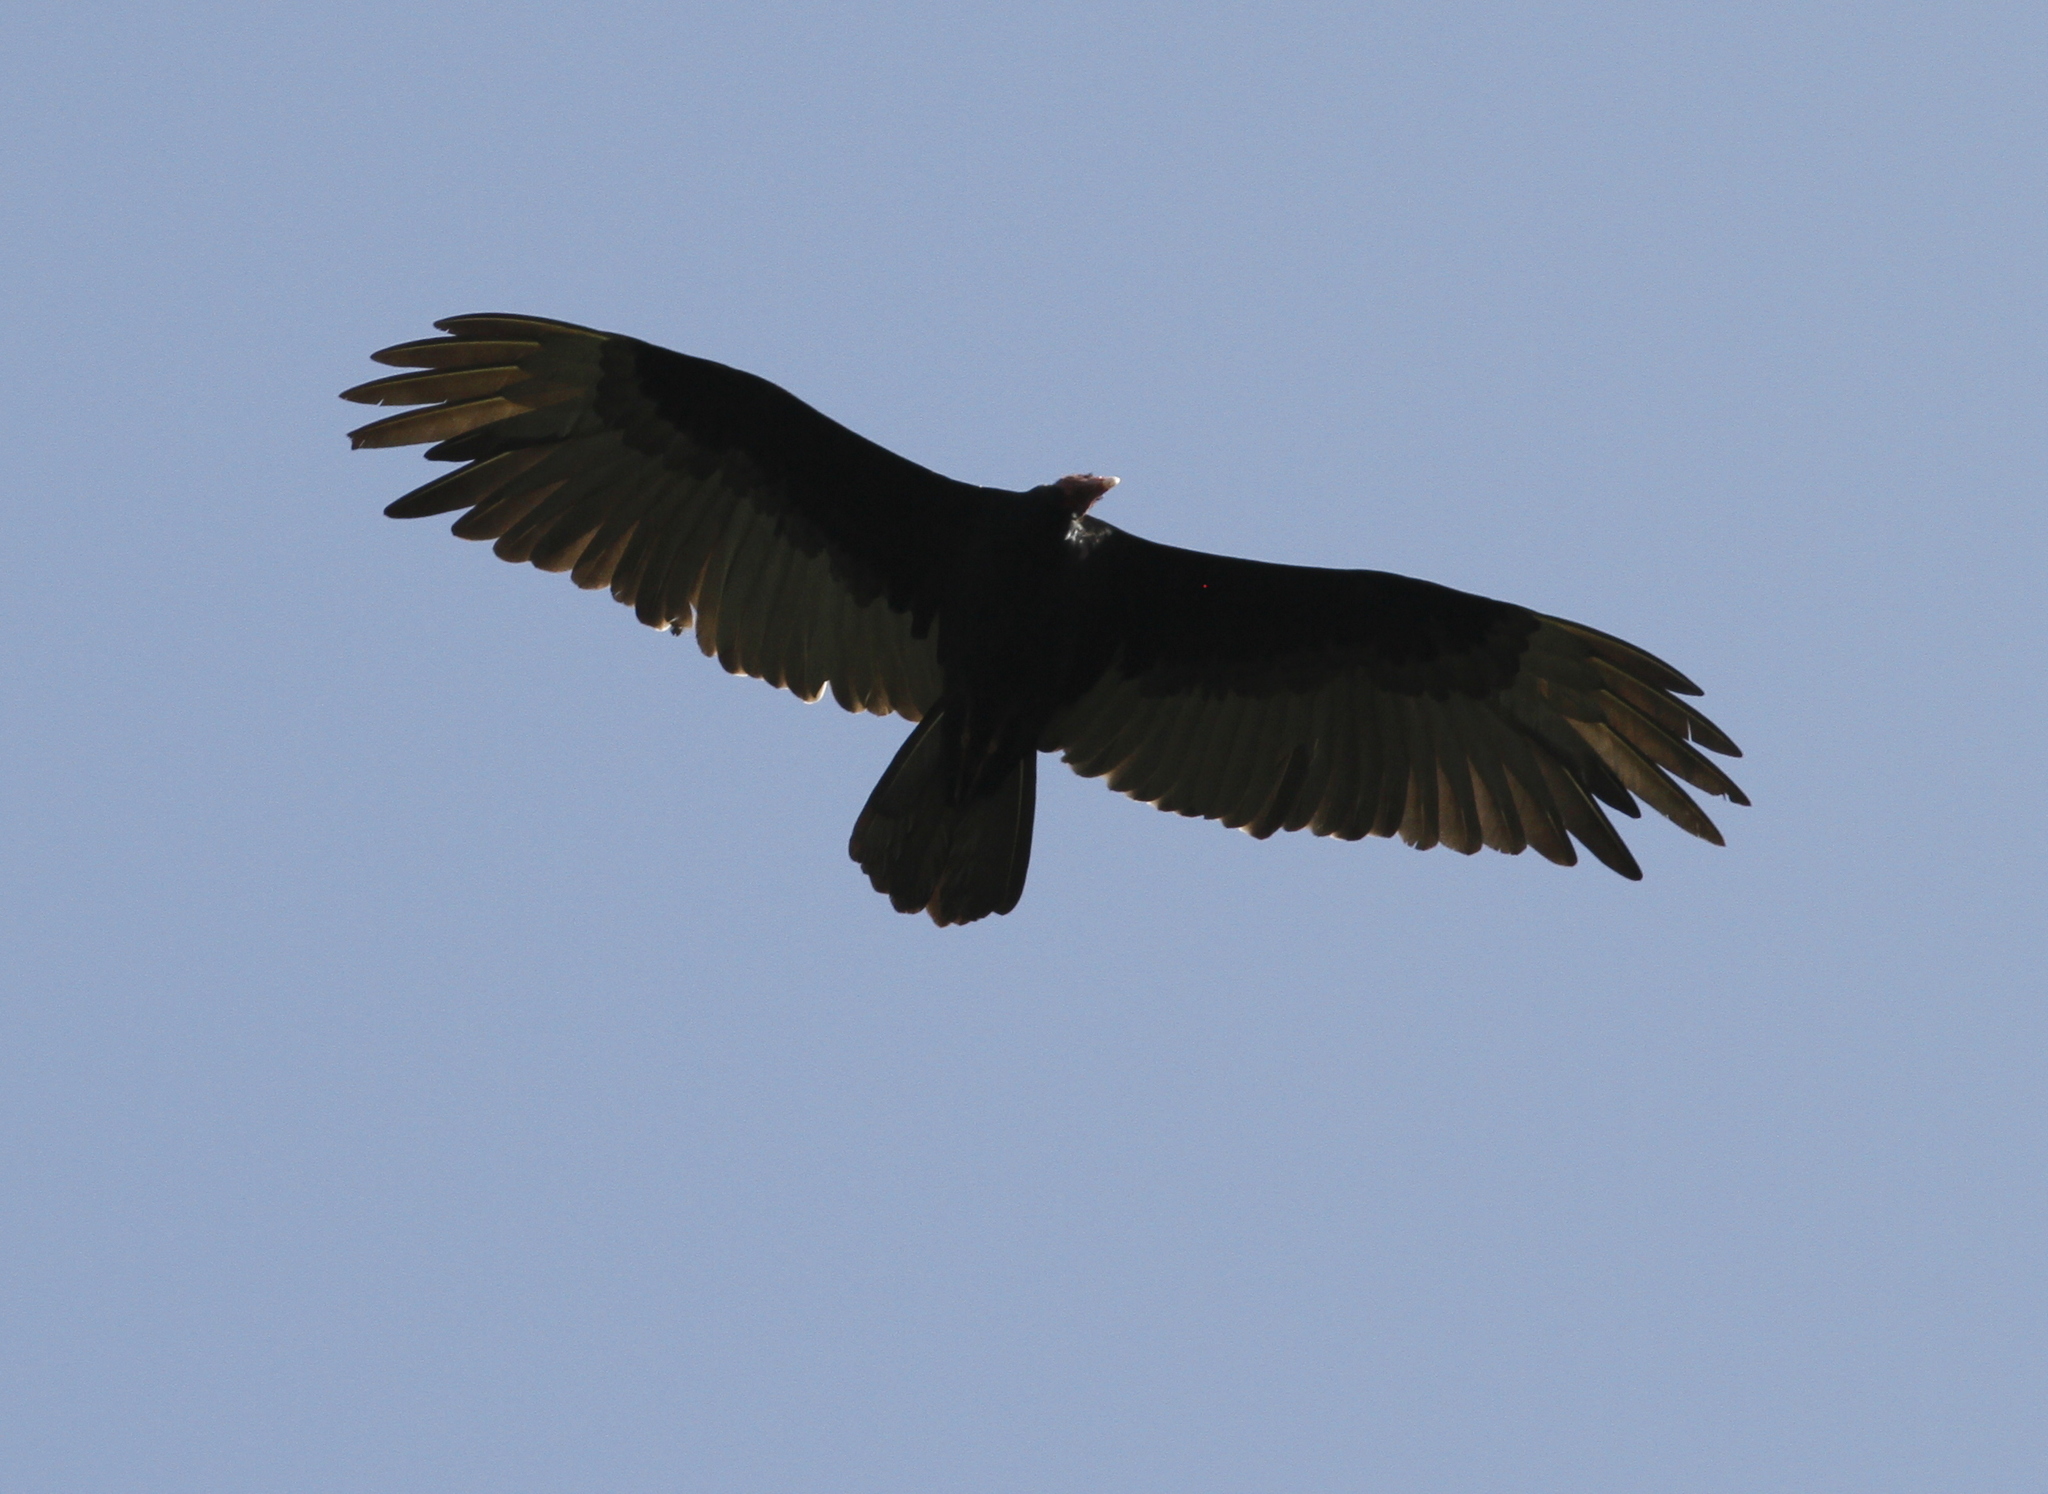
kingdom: Animalia
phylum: Chordata
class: Aves
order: Accipitriformes
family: Cathartidae
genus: Cathartes
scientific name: Cathartes aura
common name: Turkey vulture
